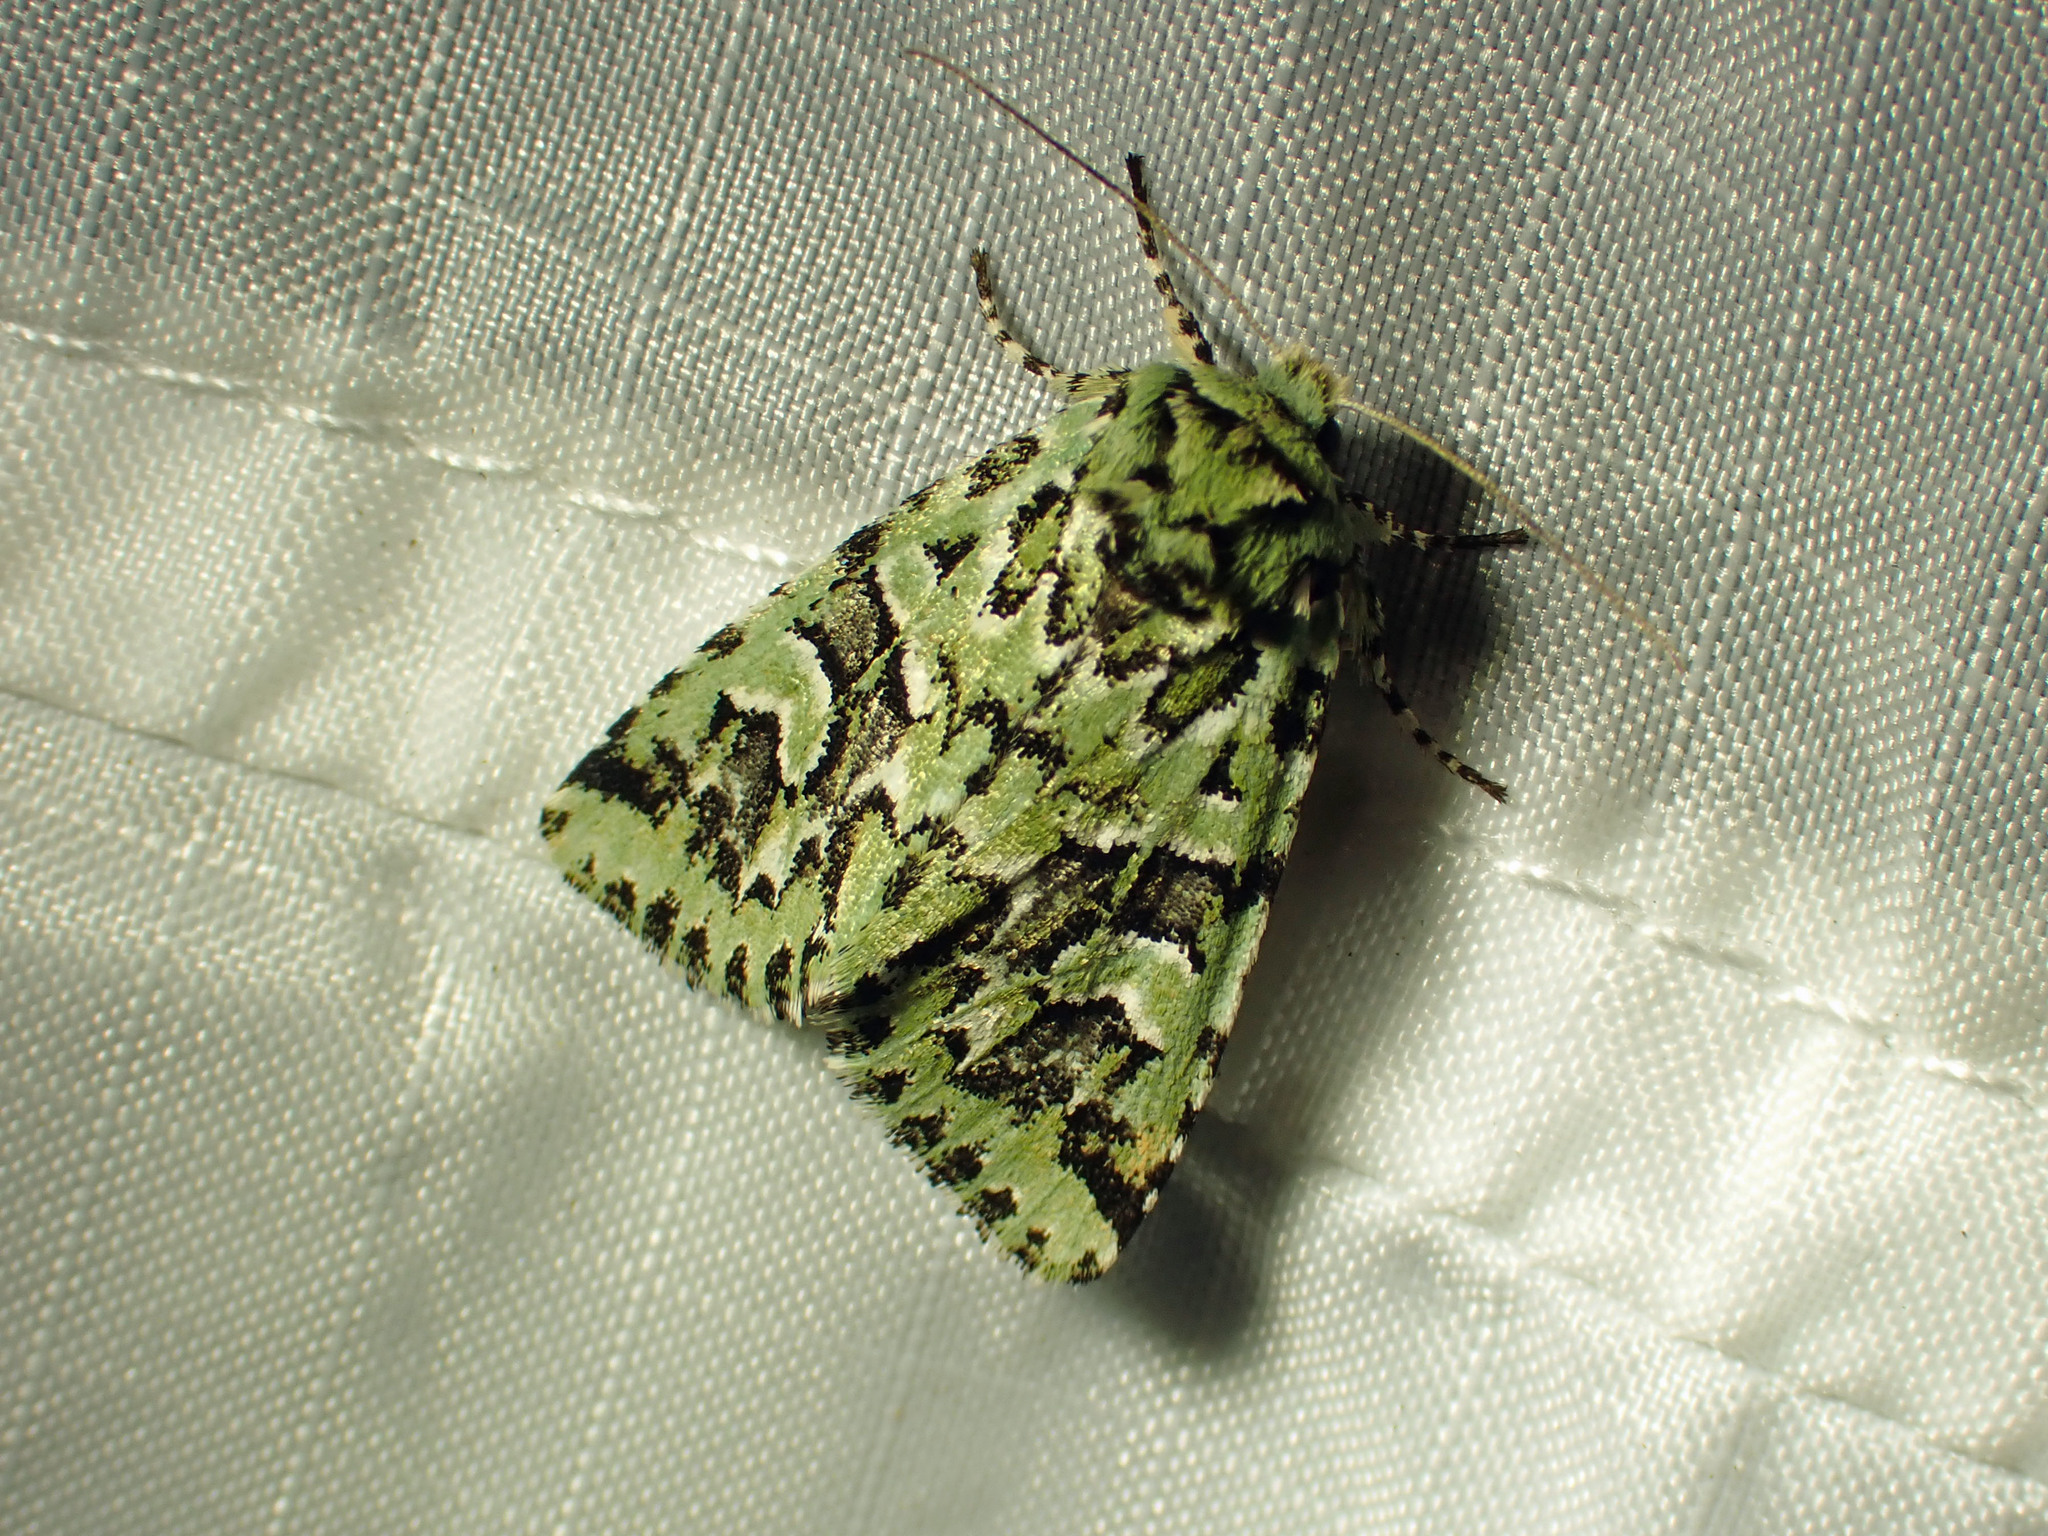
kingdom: Animalia
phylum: Arthropoda
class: Insecta
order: Lepidoptera
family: Noctuidae
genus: Feralia
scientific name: Feralia comstocki
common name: Comstock's sallow
